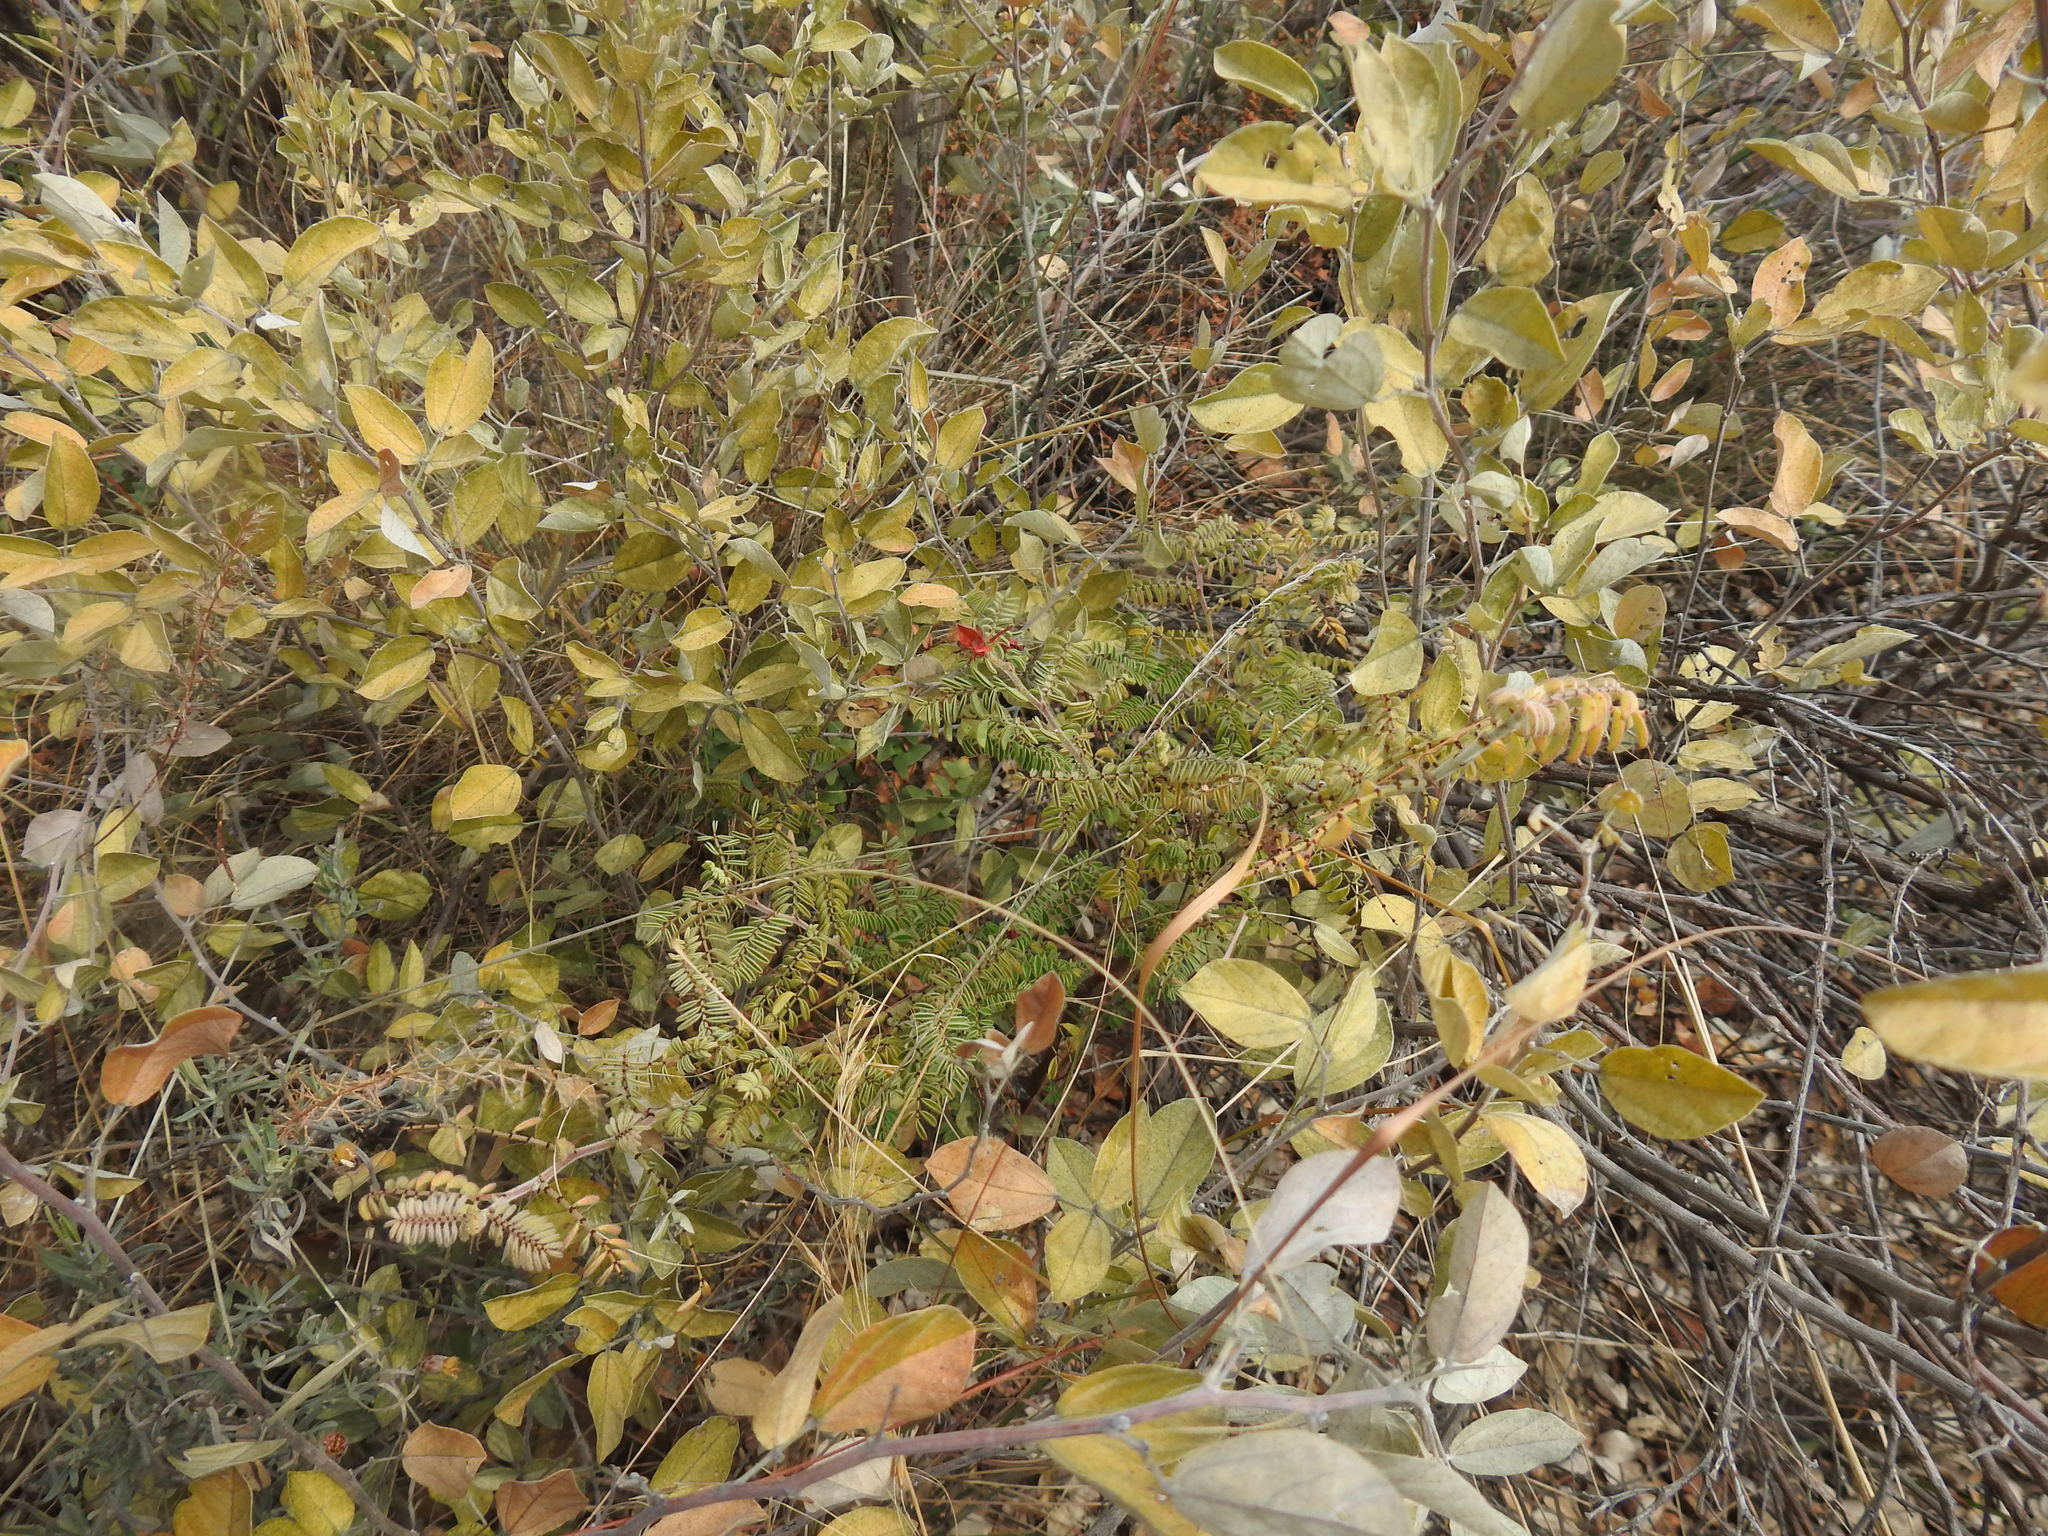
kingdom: Plantae
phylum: Tracheophyta
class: Magnoliopsida
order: Fabales
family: Fabaceae
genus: Indigofera
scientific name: Indigofera comosa
